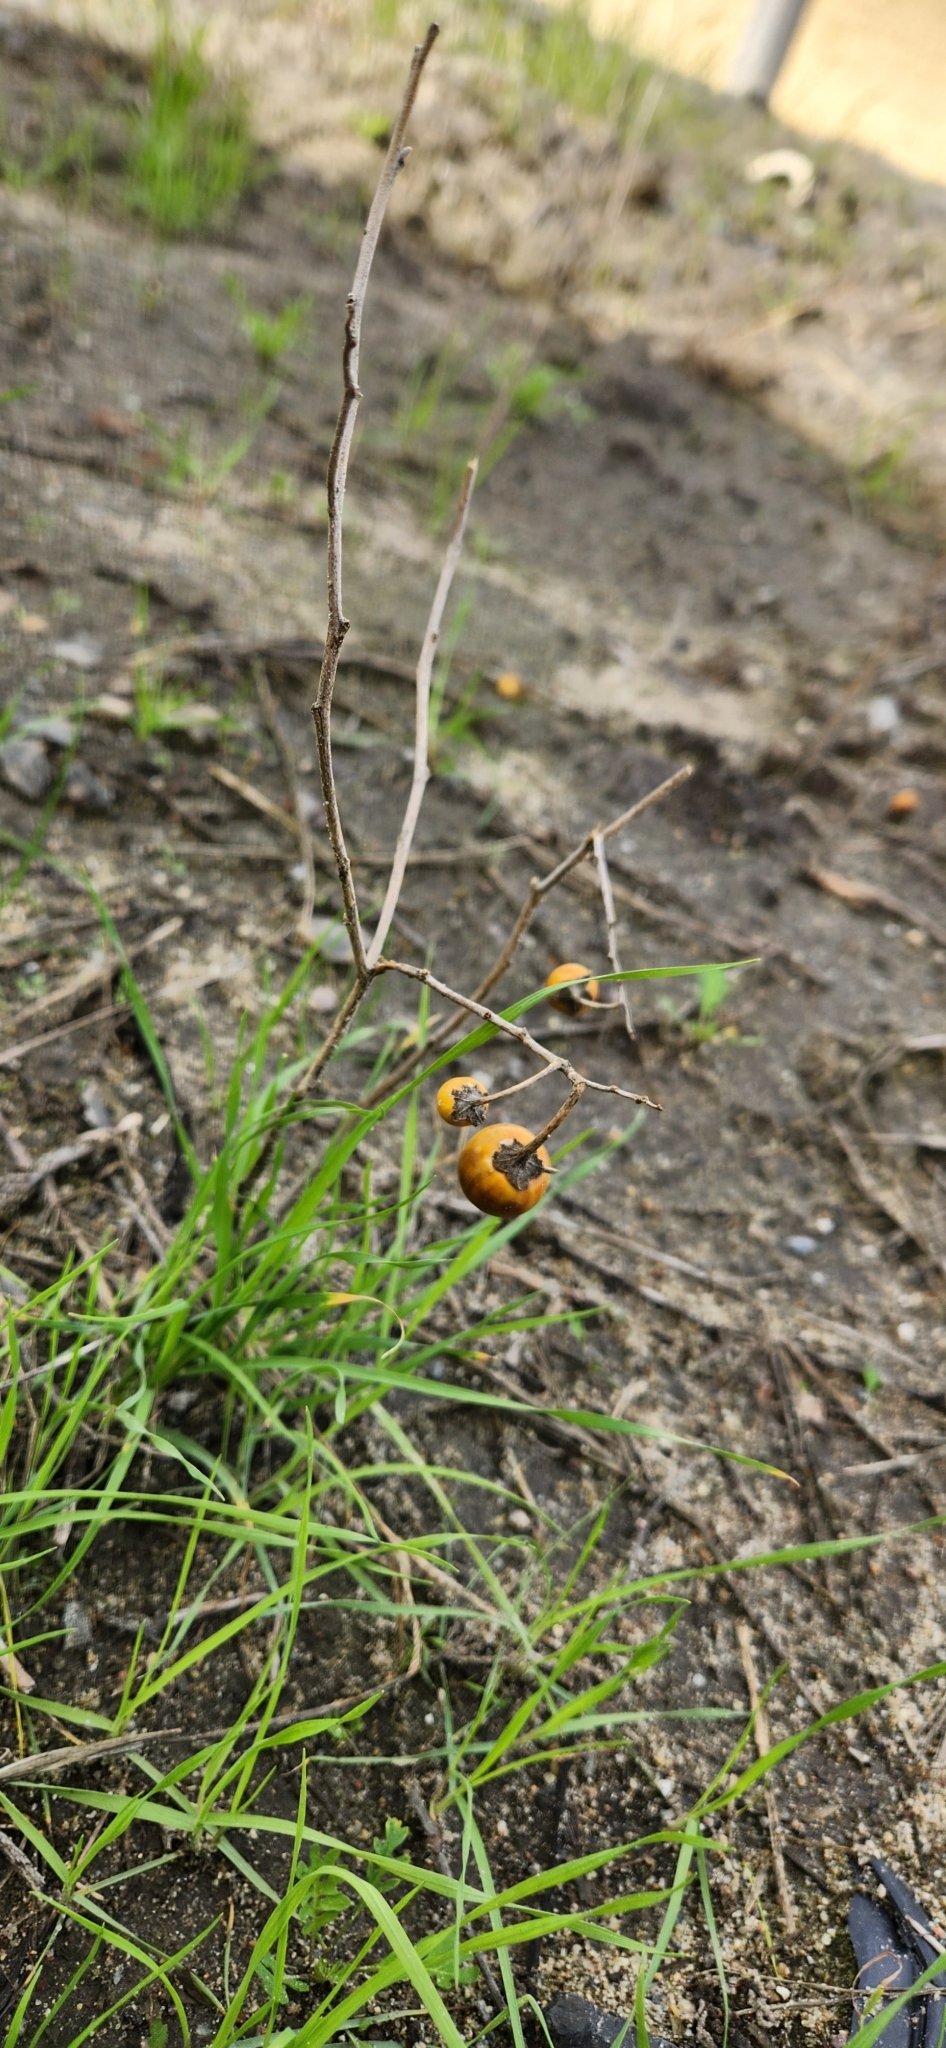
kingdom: Plantae
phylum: Tracheophyta
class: Magnoliopsida
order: Solanales
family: Solanaceae
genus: Solanum
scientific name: Solanum elaeagnifolium
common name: Silverleaf nightshade
